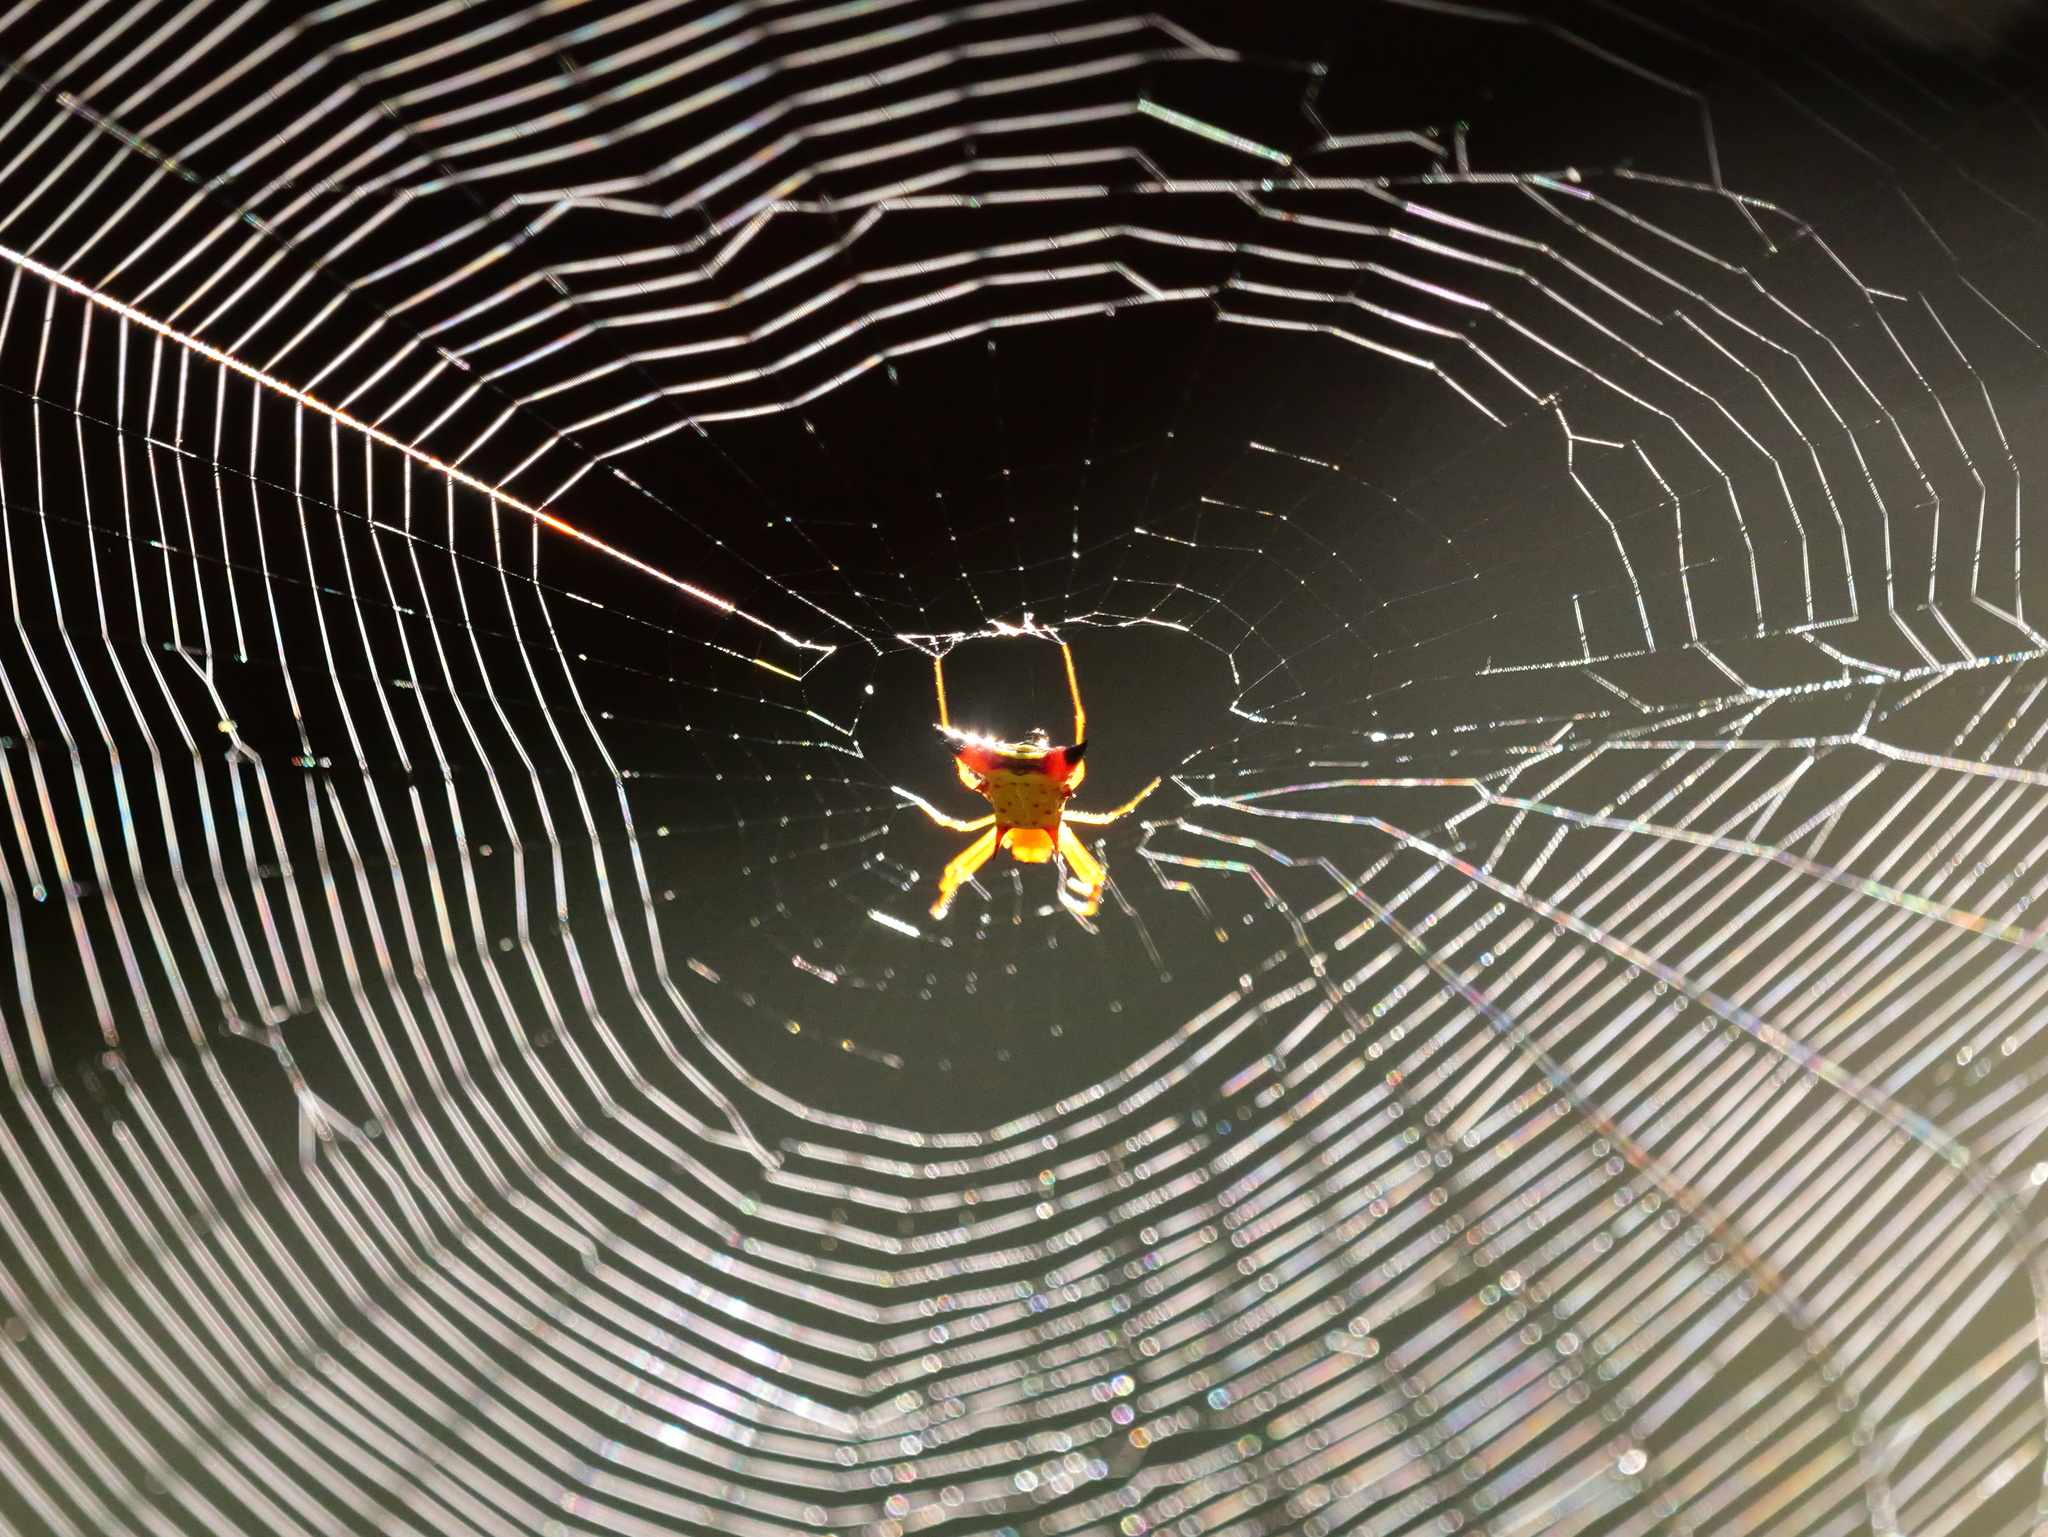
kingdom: Animalia
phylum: Arthropoda
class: Arachnida
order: Araneae
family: Araneidae
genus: Micrathena
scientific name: Micrathena sagittata
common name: Orb weavers
